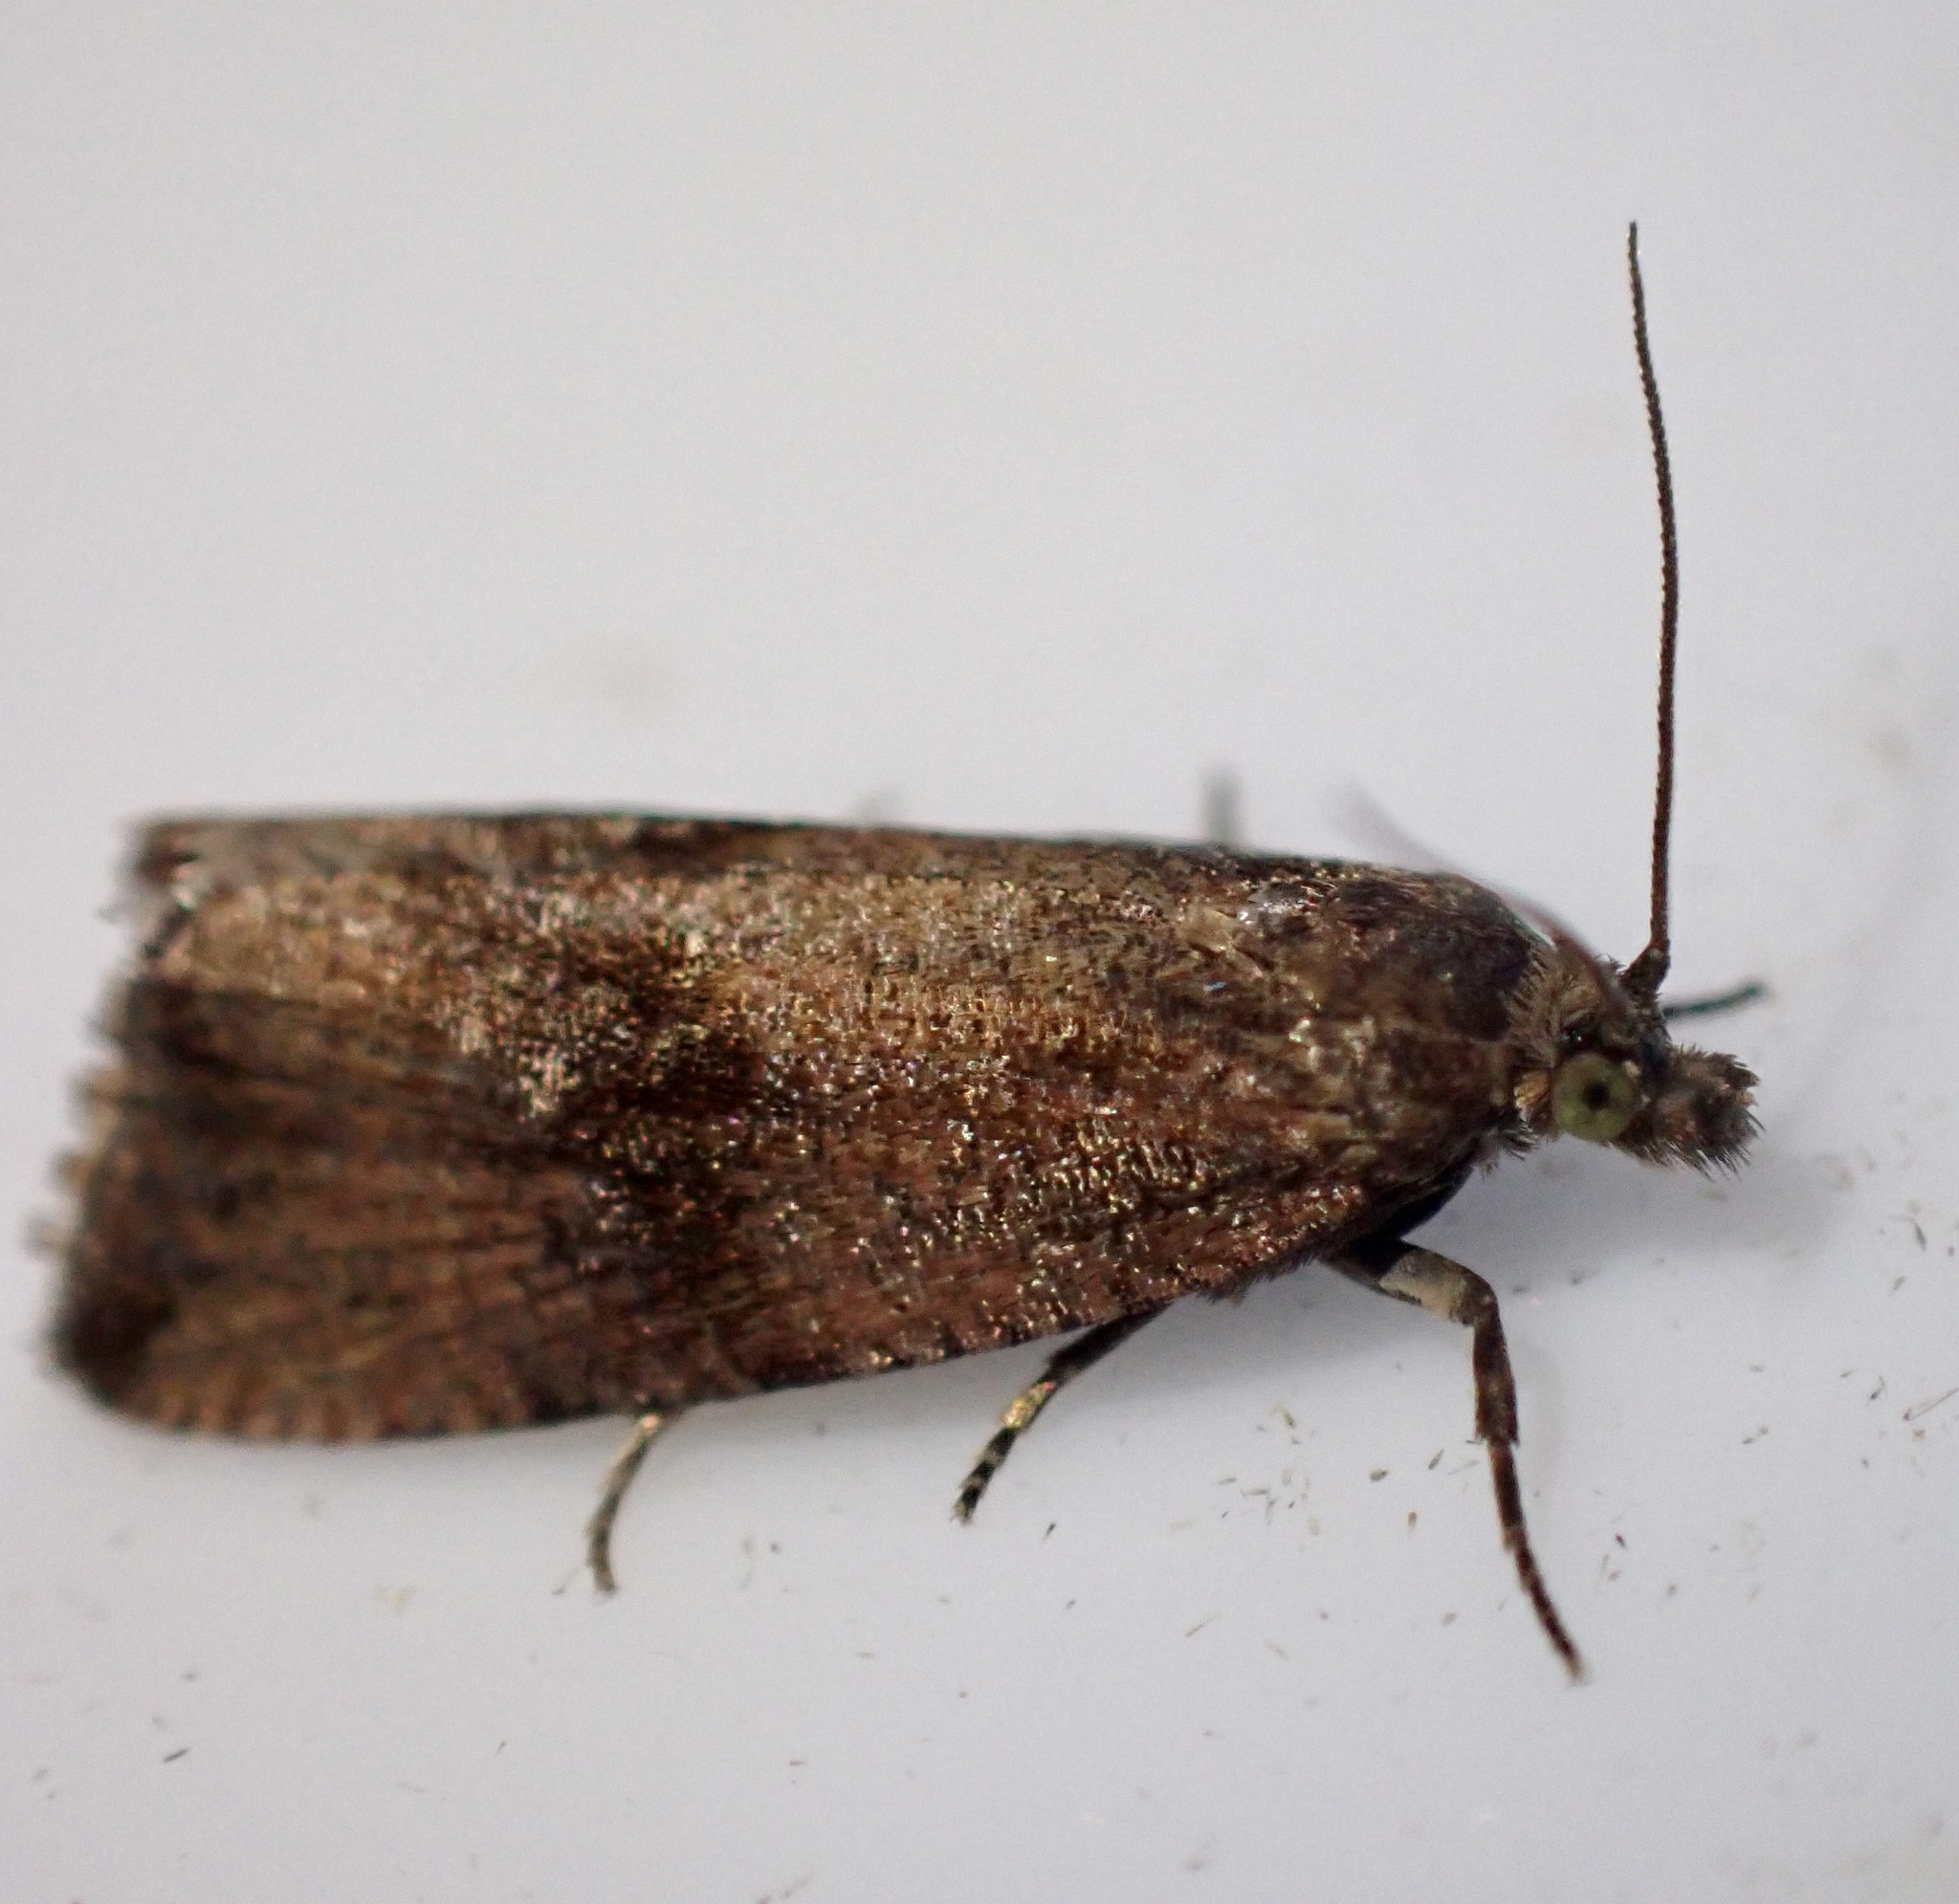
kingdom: Animalia
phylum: Arthropoda
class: Insecta
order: Lepidoptera
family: Tortricidae
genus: Celypha
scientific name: Celypha striana
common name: Barred marble
